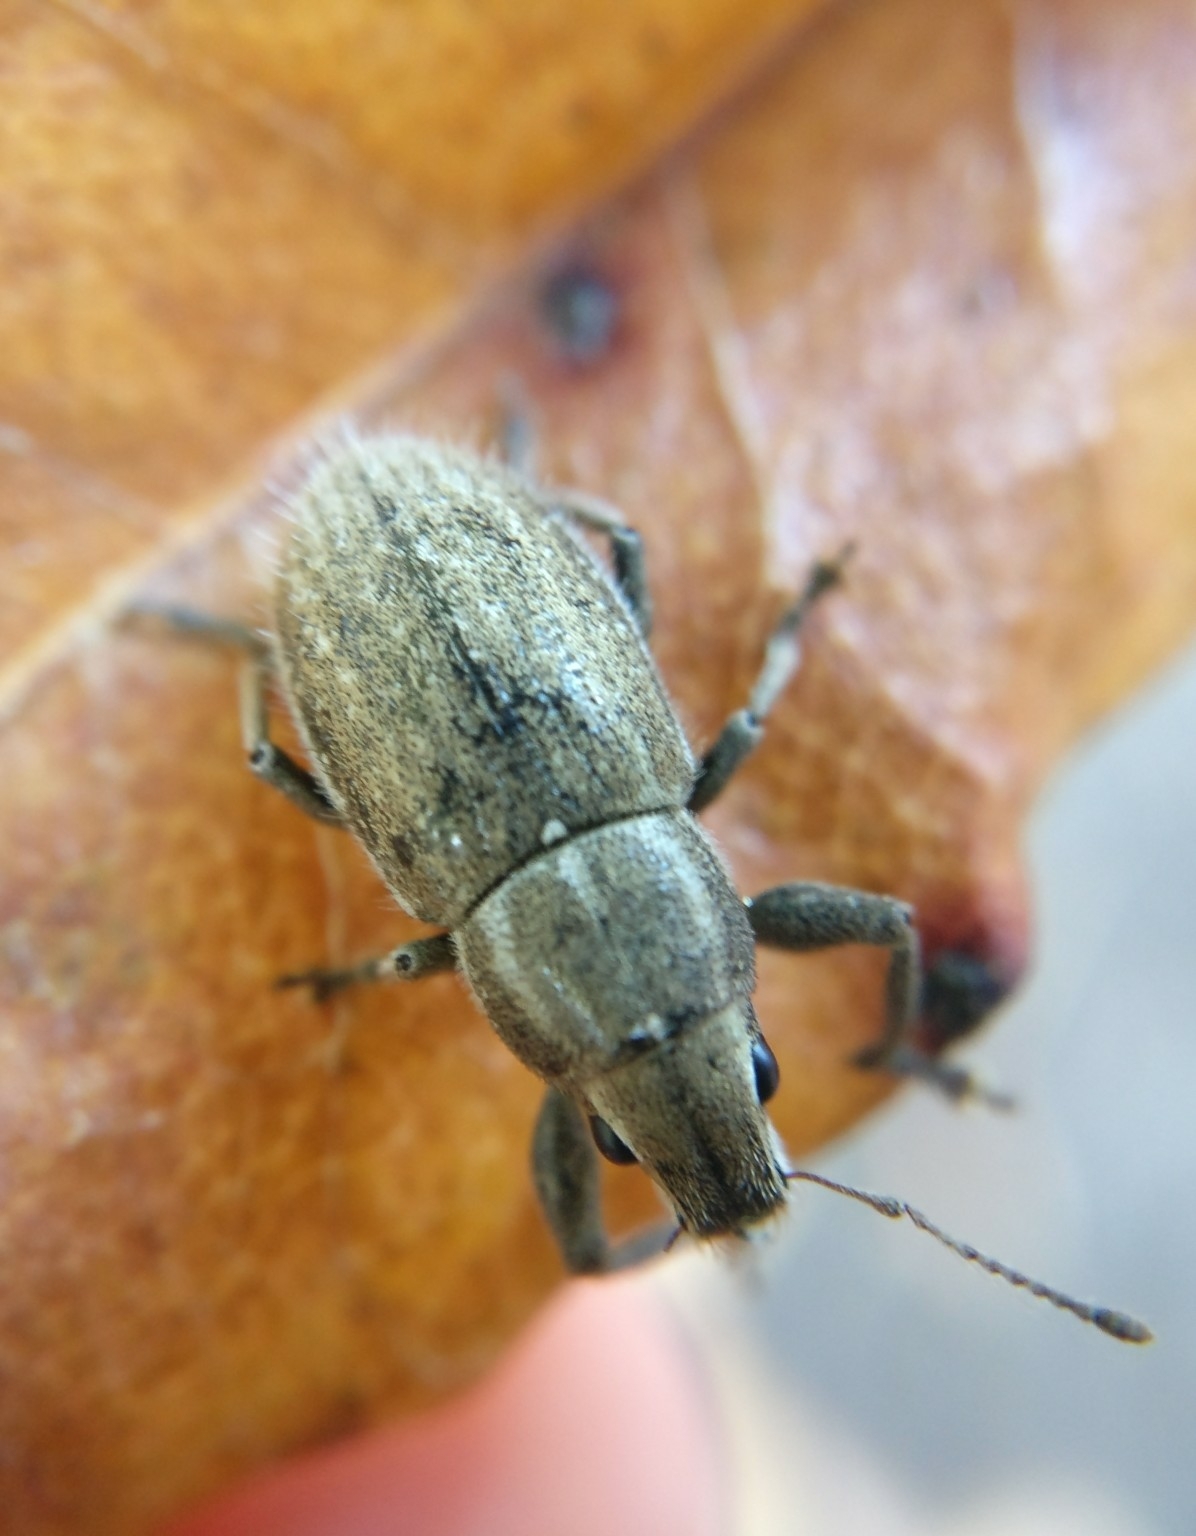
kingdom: Animalia
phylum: Arthropoda
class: Insecta
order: Coleoptera
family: Curculionidae
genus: Naupactus
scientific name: Naupactus leucoloma
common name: Whitefringed beetle
